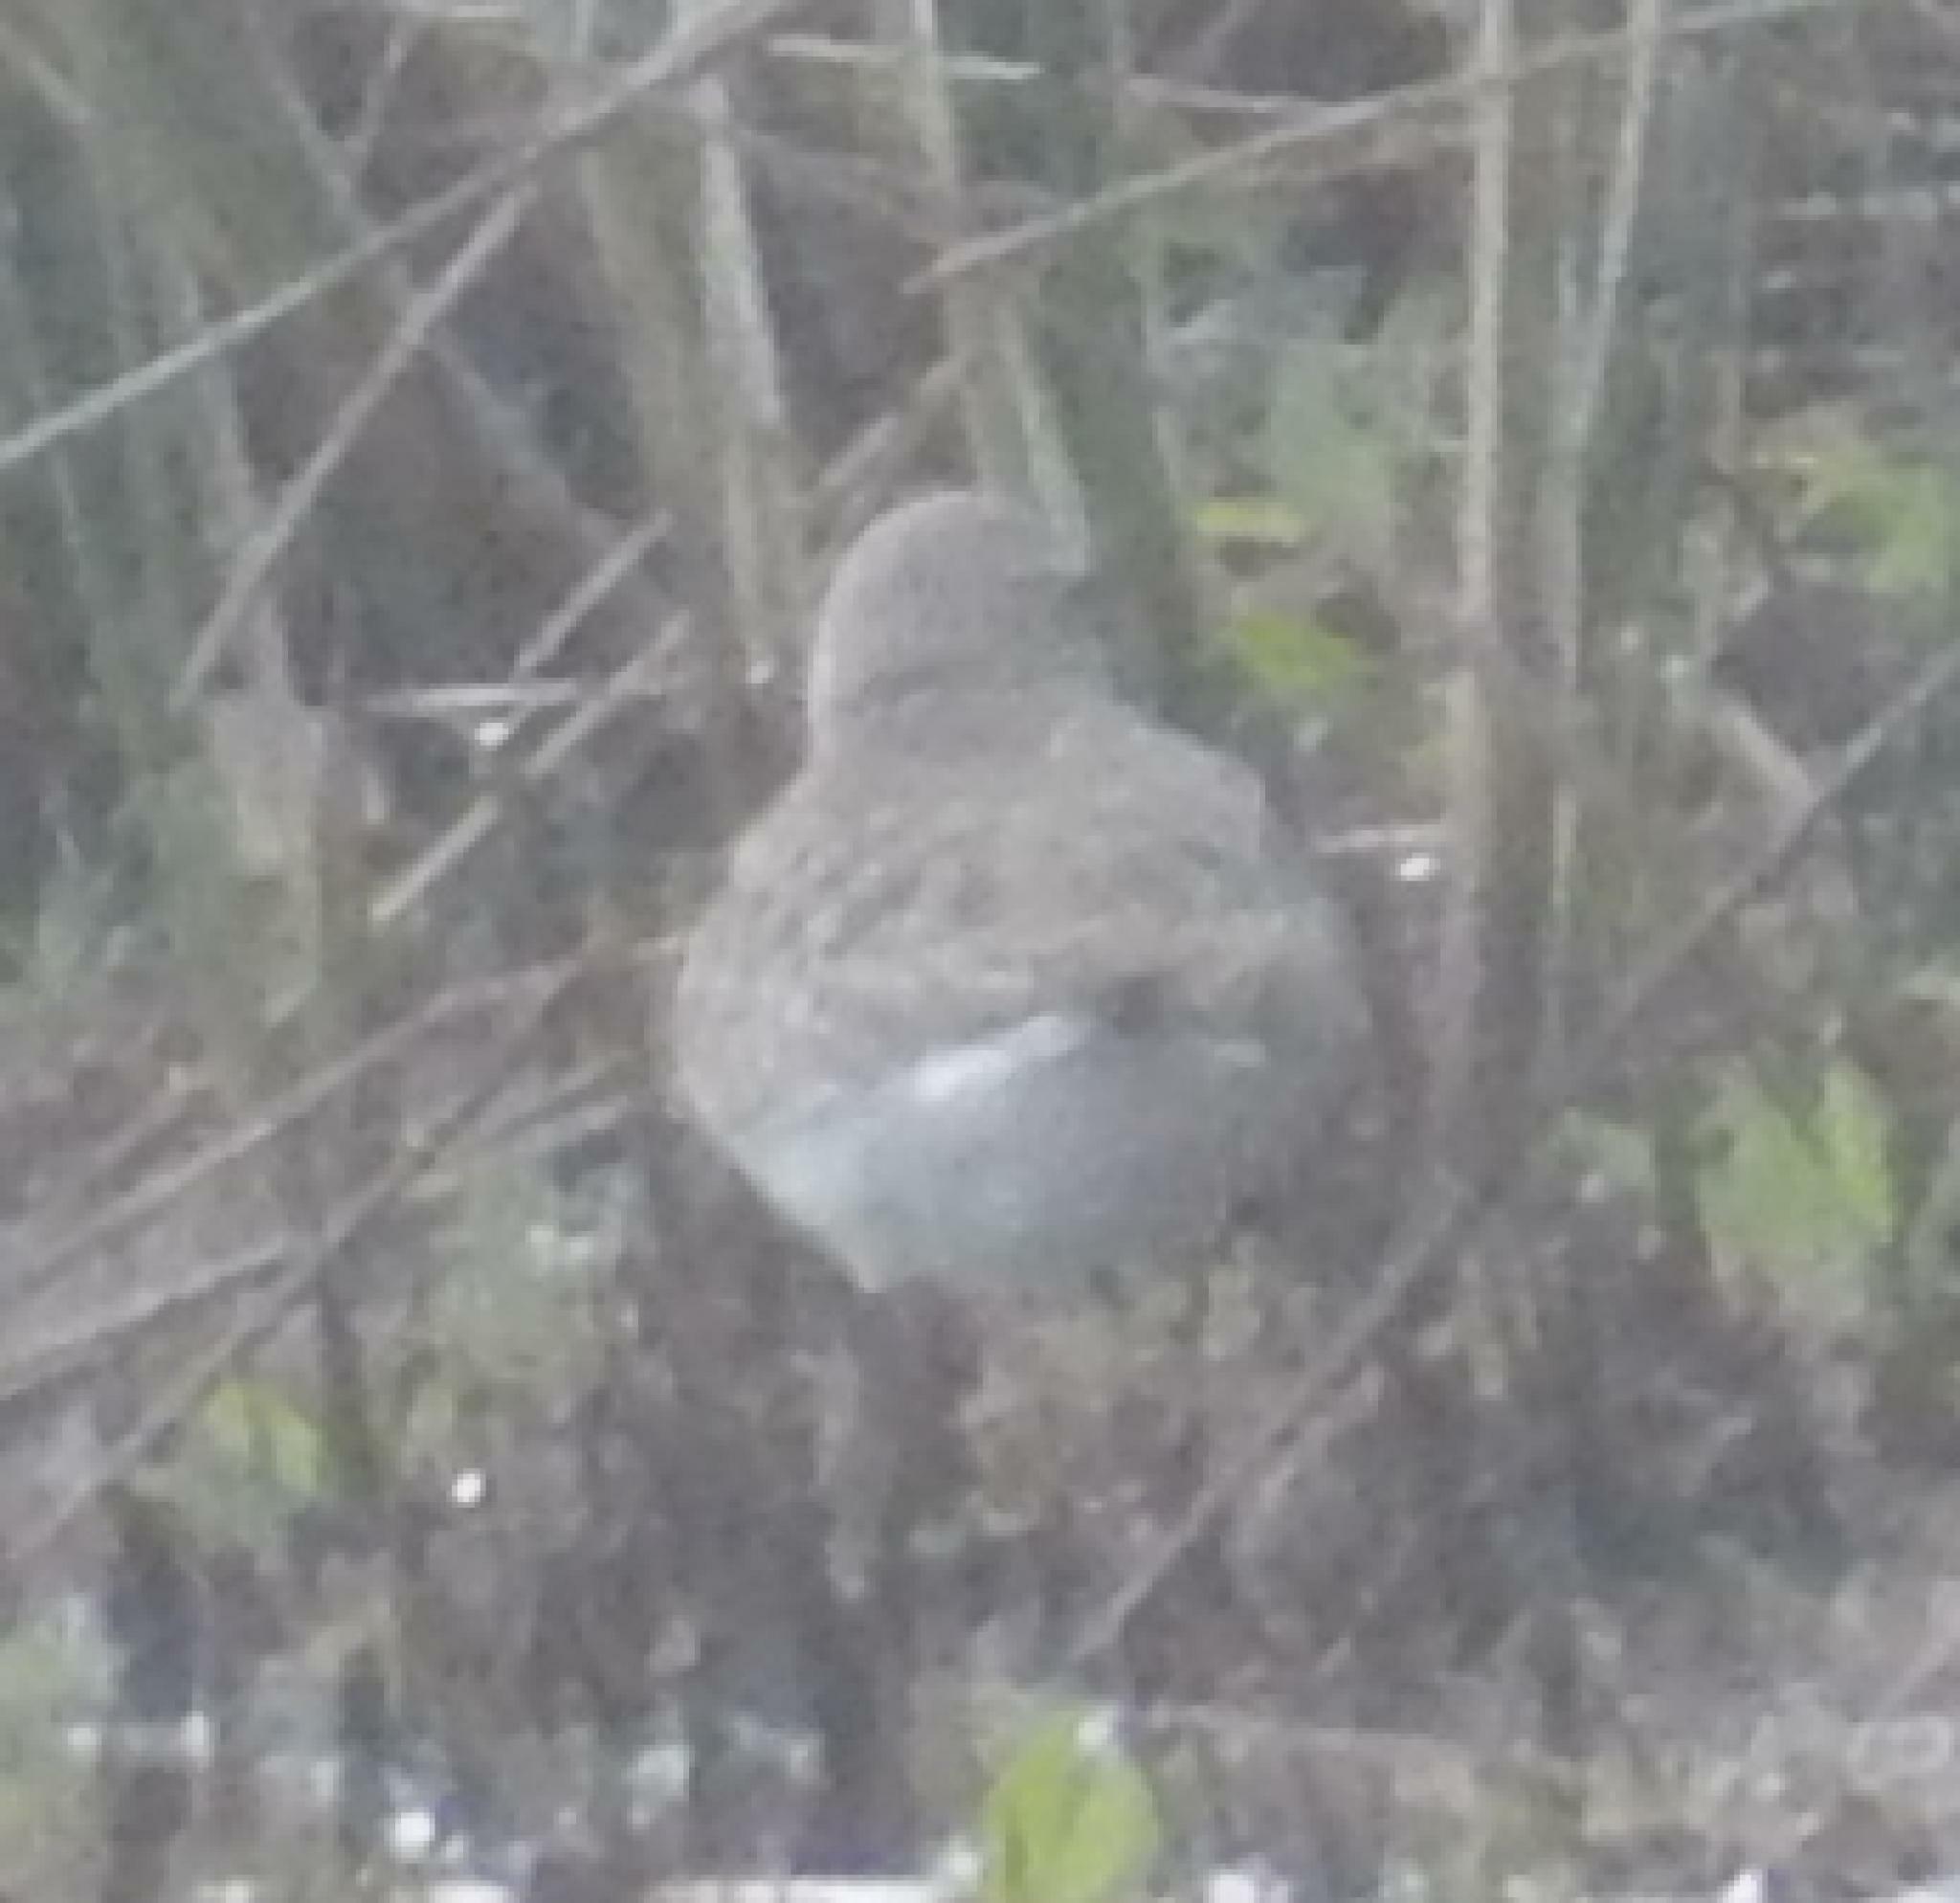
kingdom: Animalia
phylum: Chordata
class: Aves
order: Charadriiformes
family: Scolopacidae
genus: Calidris
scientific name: Calidris ferruginea
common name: Curlew sandpiper
